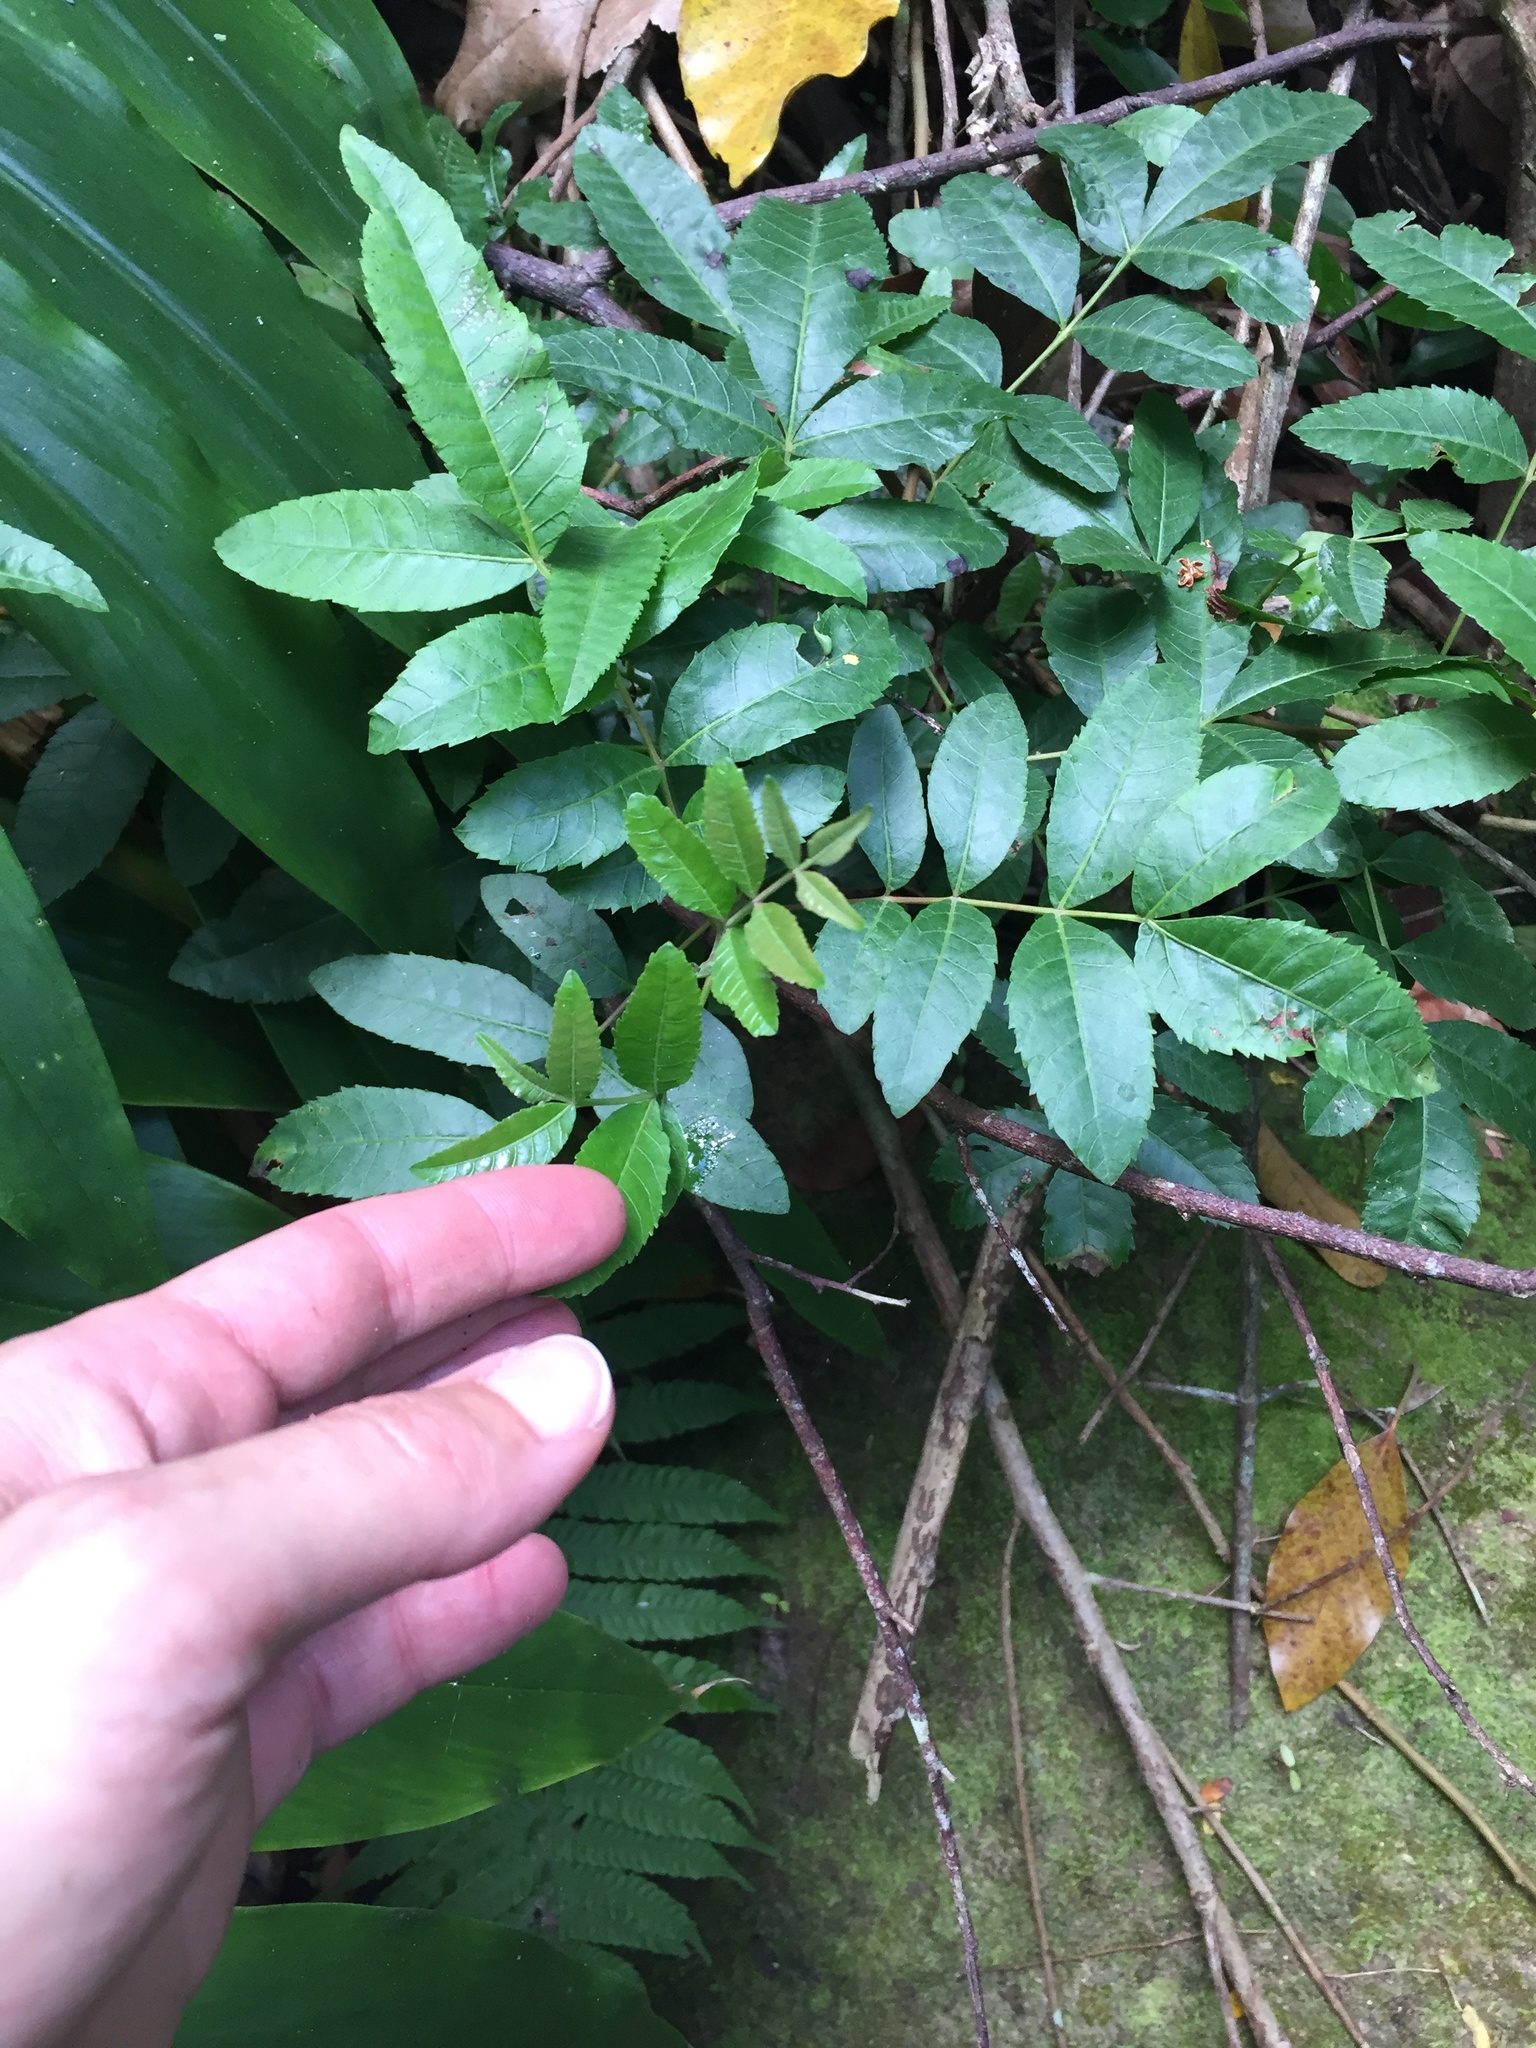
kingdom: Plantae
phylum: Tracheophyta
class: Magnoliopsida
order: Sapindales
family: Anacardiaceae
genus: Schinus
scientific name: Schinus terebinthifolia
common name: Brazilian peppertree
